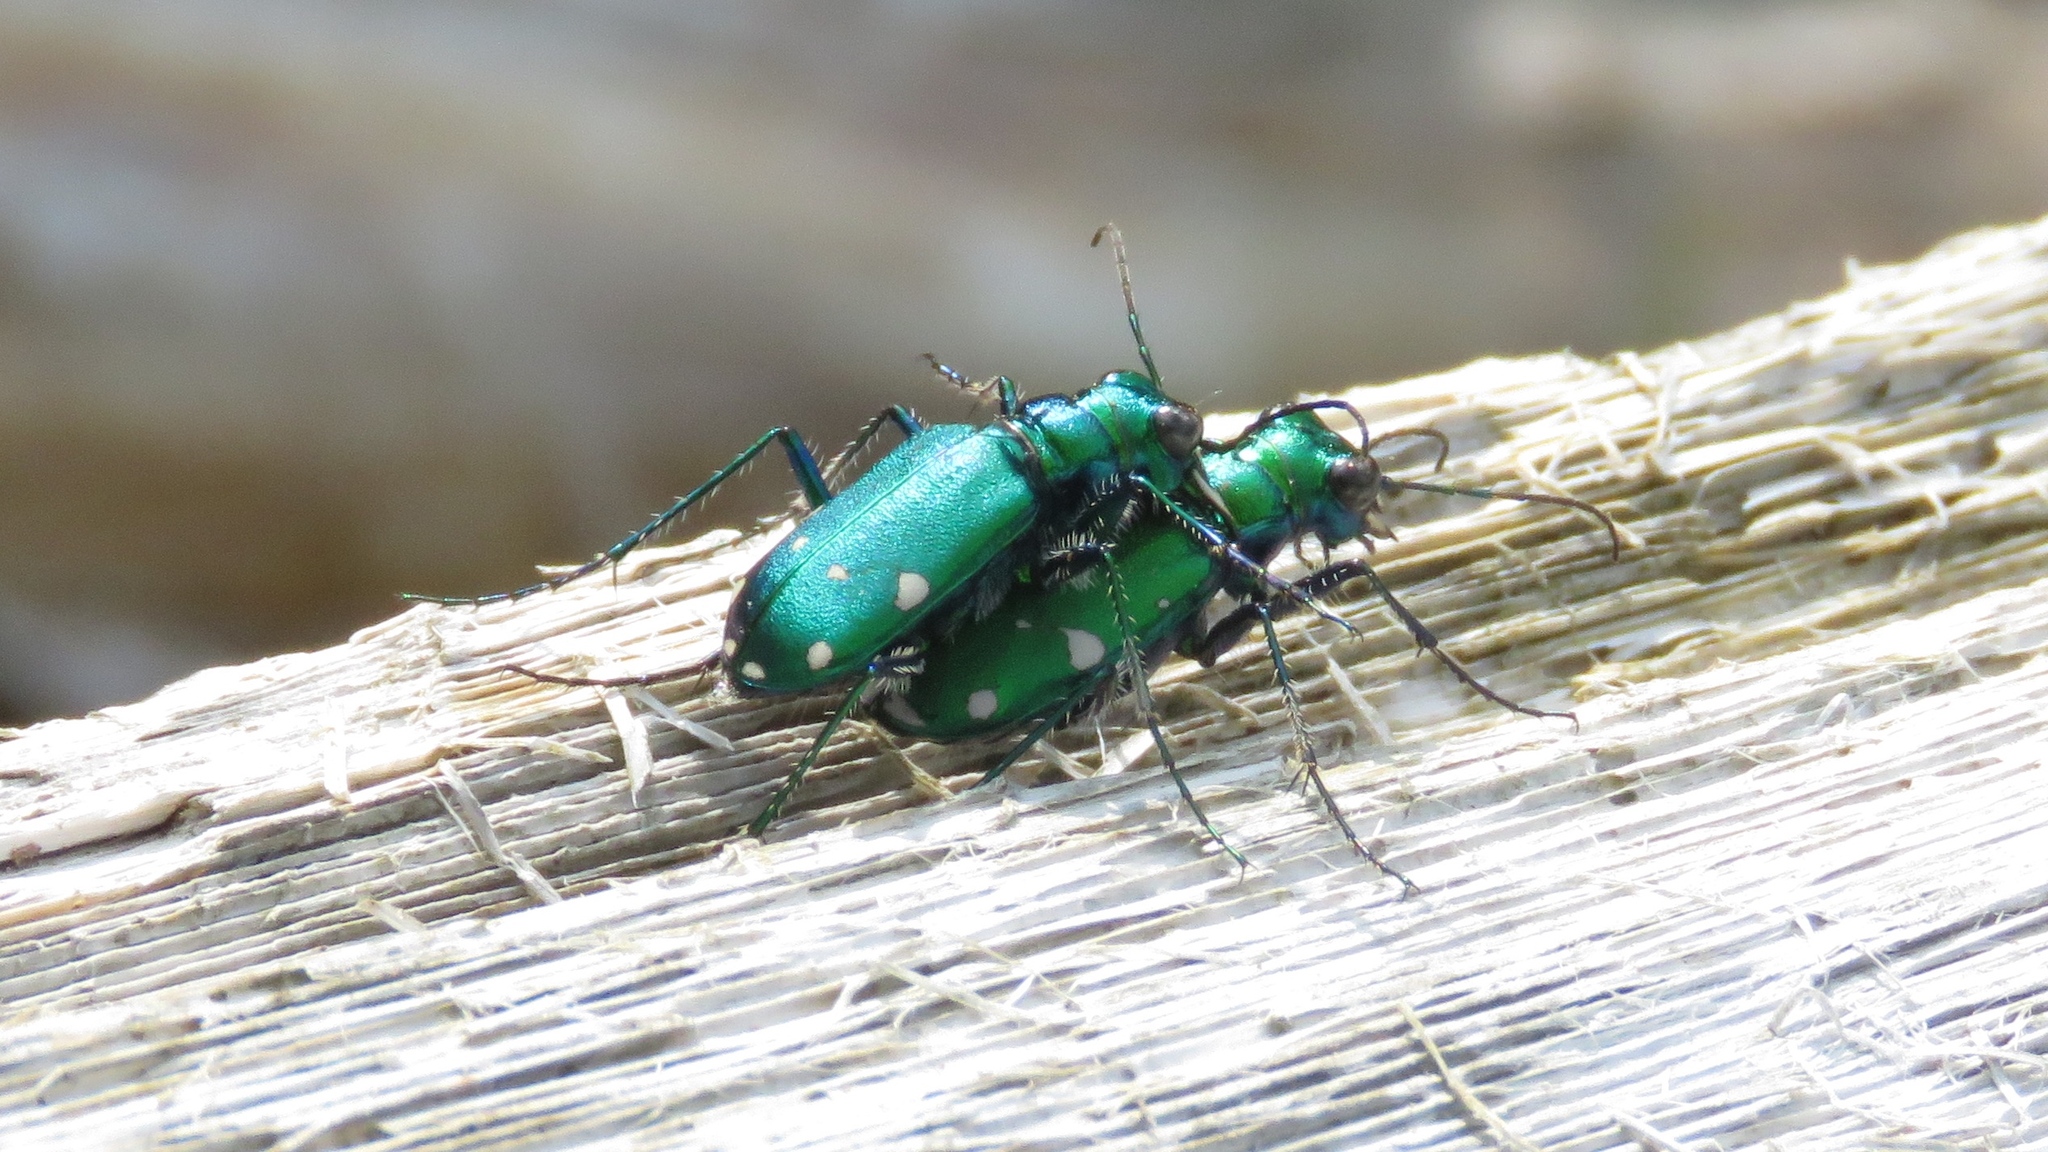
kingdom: Animalia
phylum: Arthropoda
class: Insecta
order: Coleoptera
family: Carabidae
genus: Cicindela
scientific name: Cicindela sexguttata
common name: Six-spotted tiger beetle
